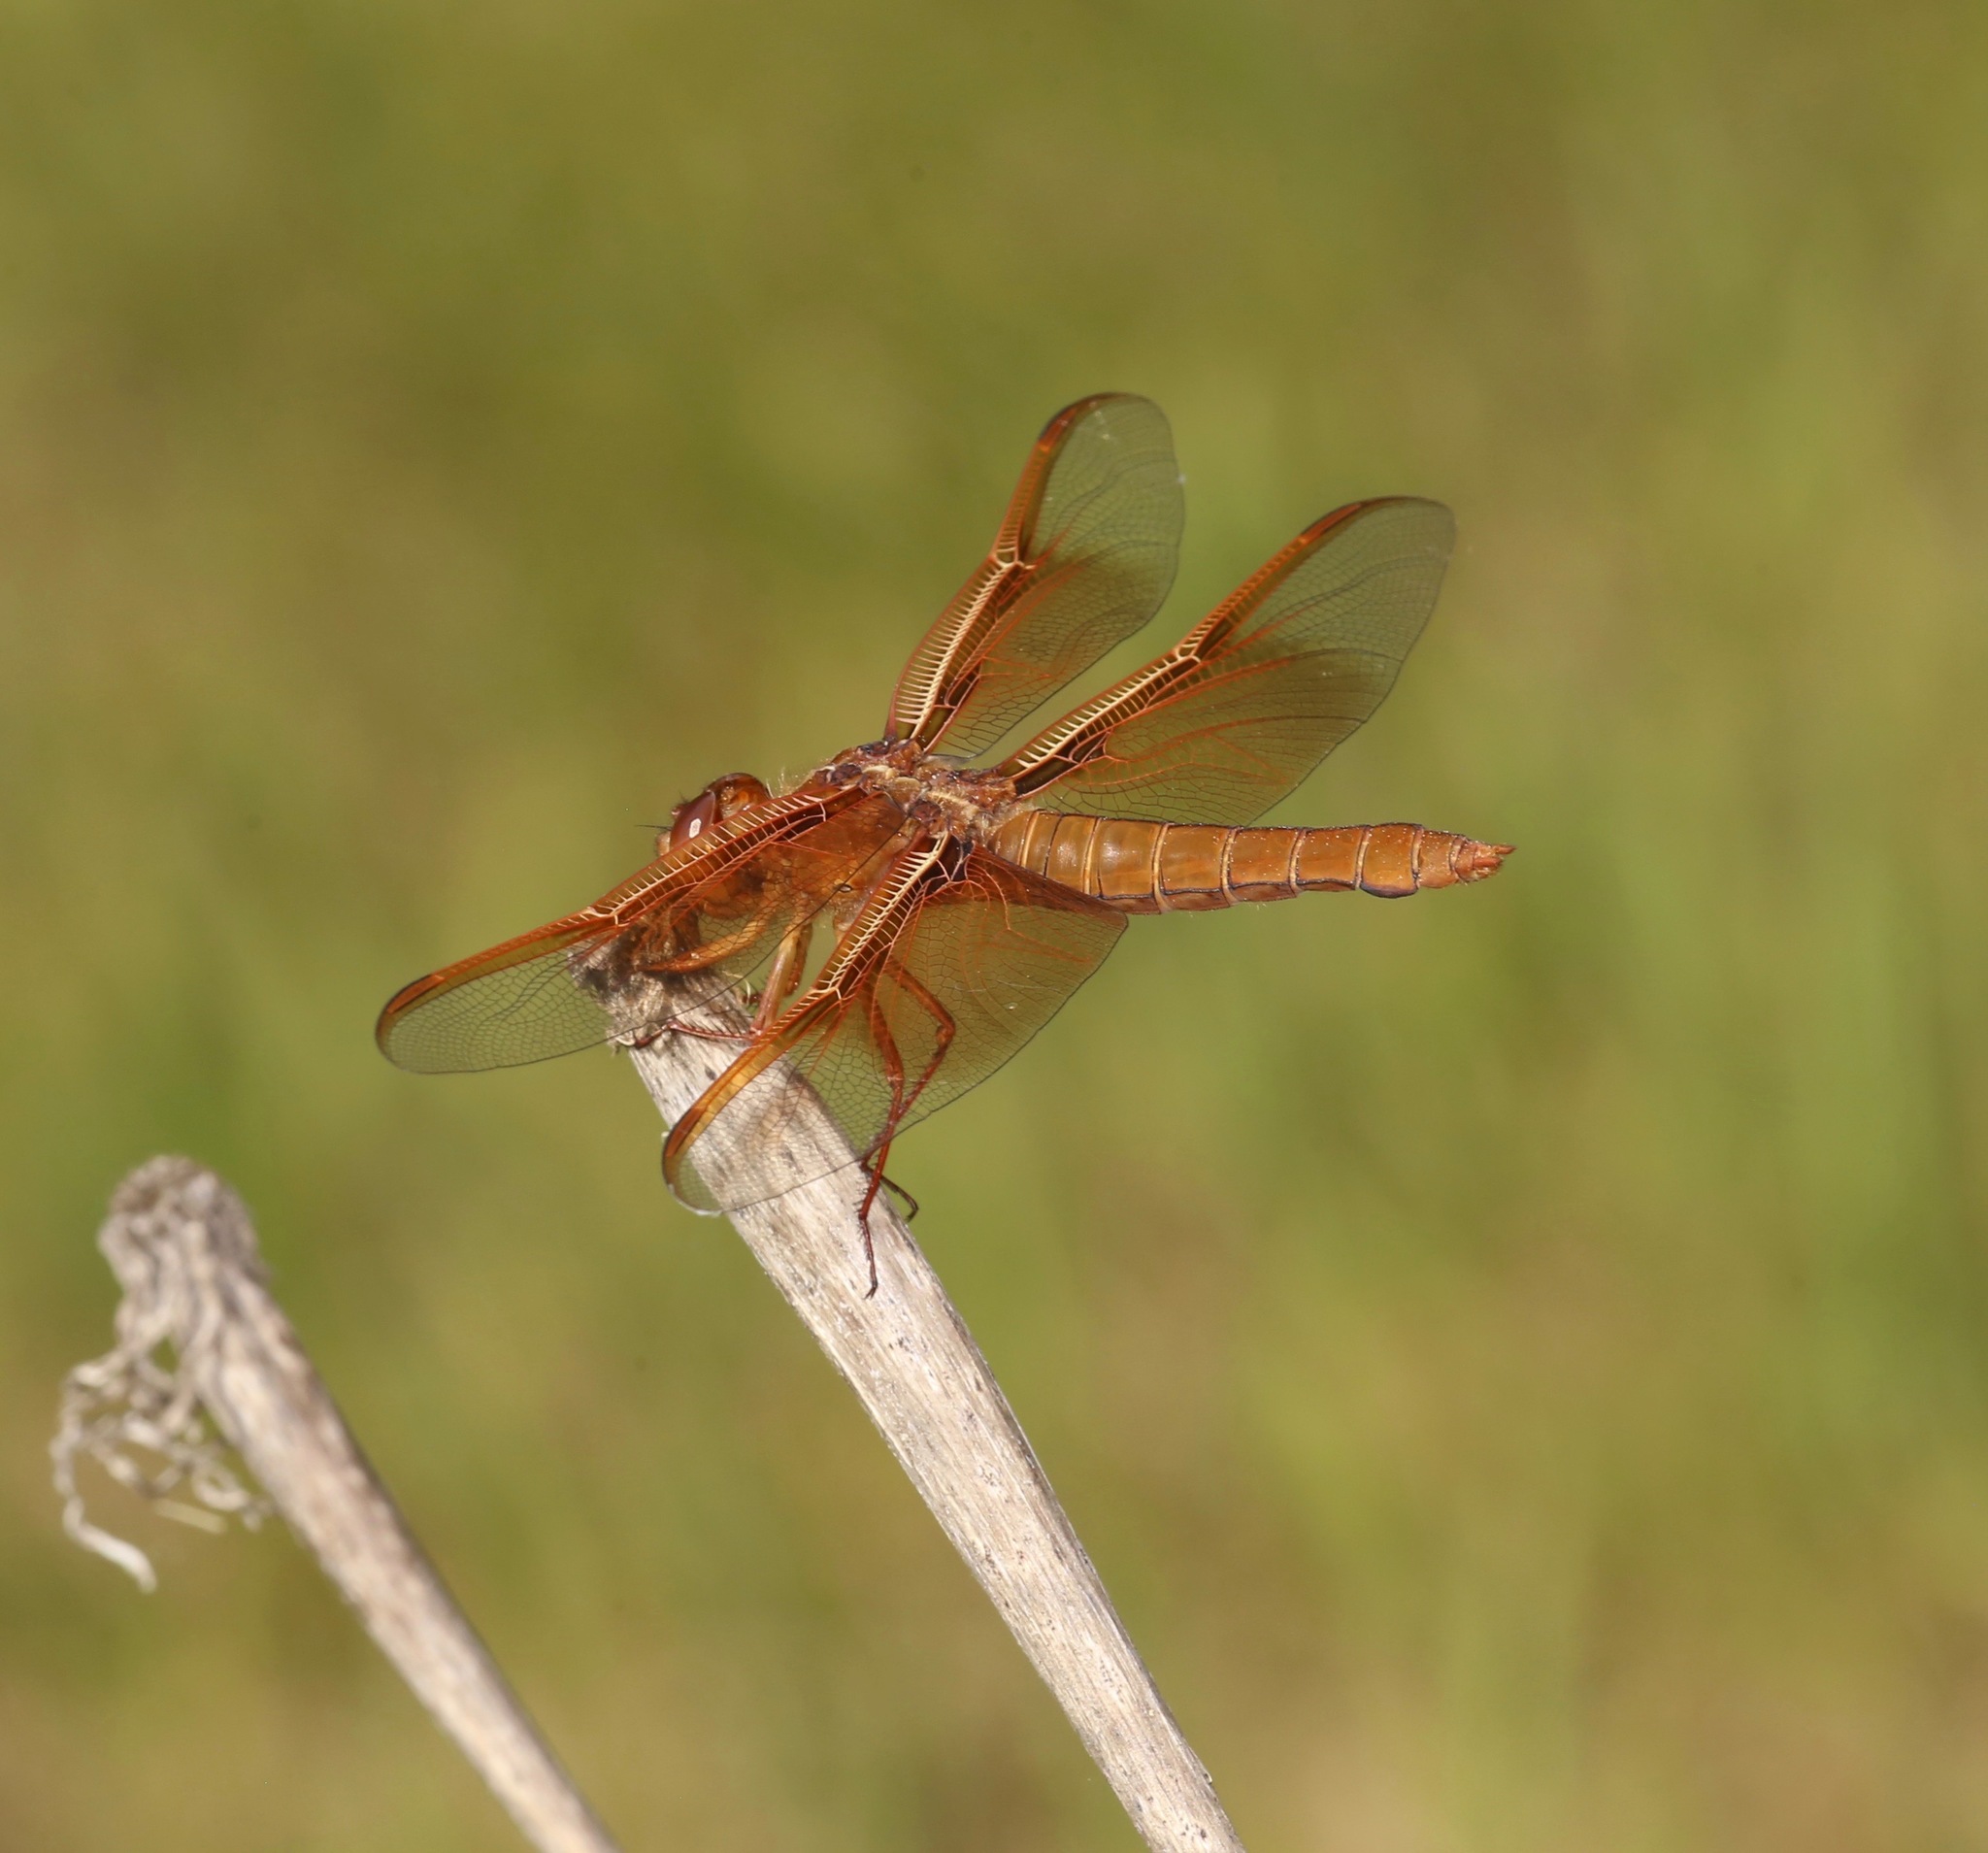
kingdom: Animalia
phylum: Arthropoda
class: Insecta
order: Odonata
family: Libellulidae
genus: Libellula
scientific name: Libellula saturata
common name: Flame skimmer
